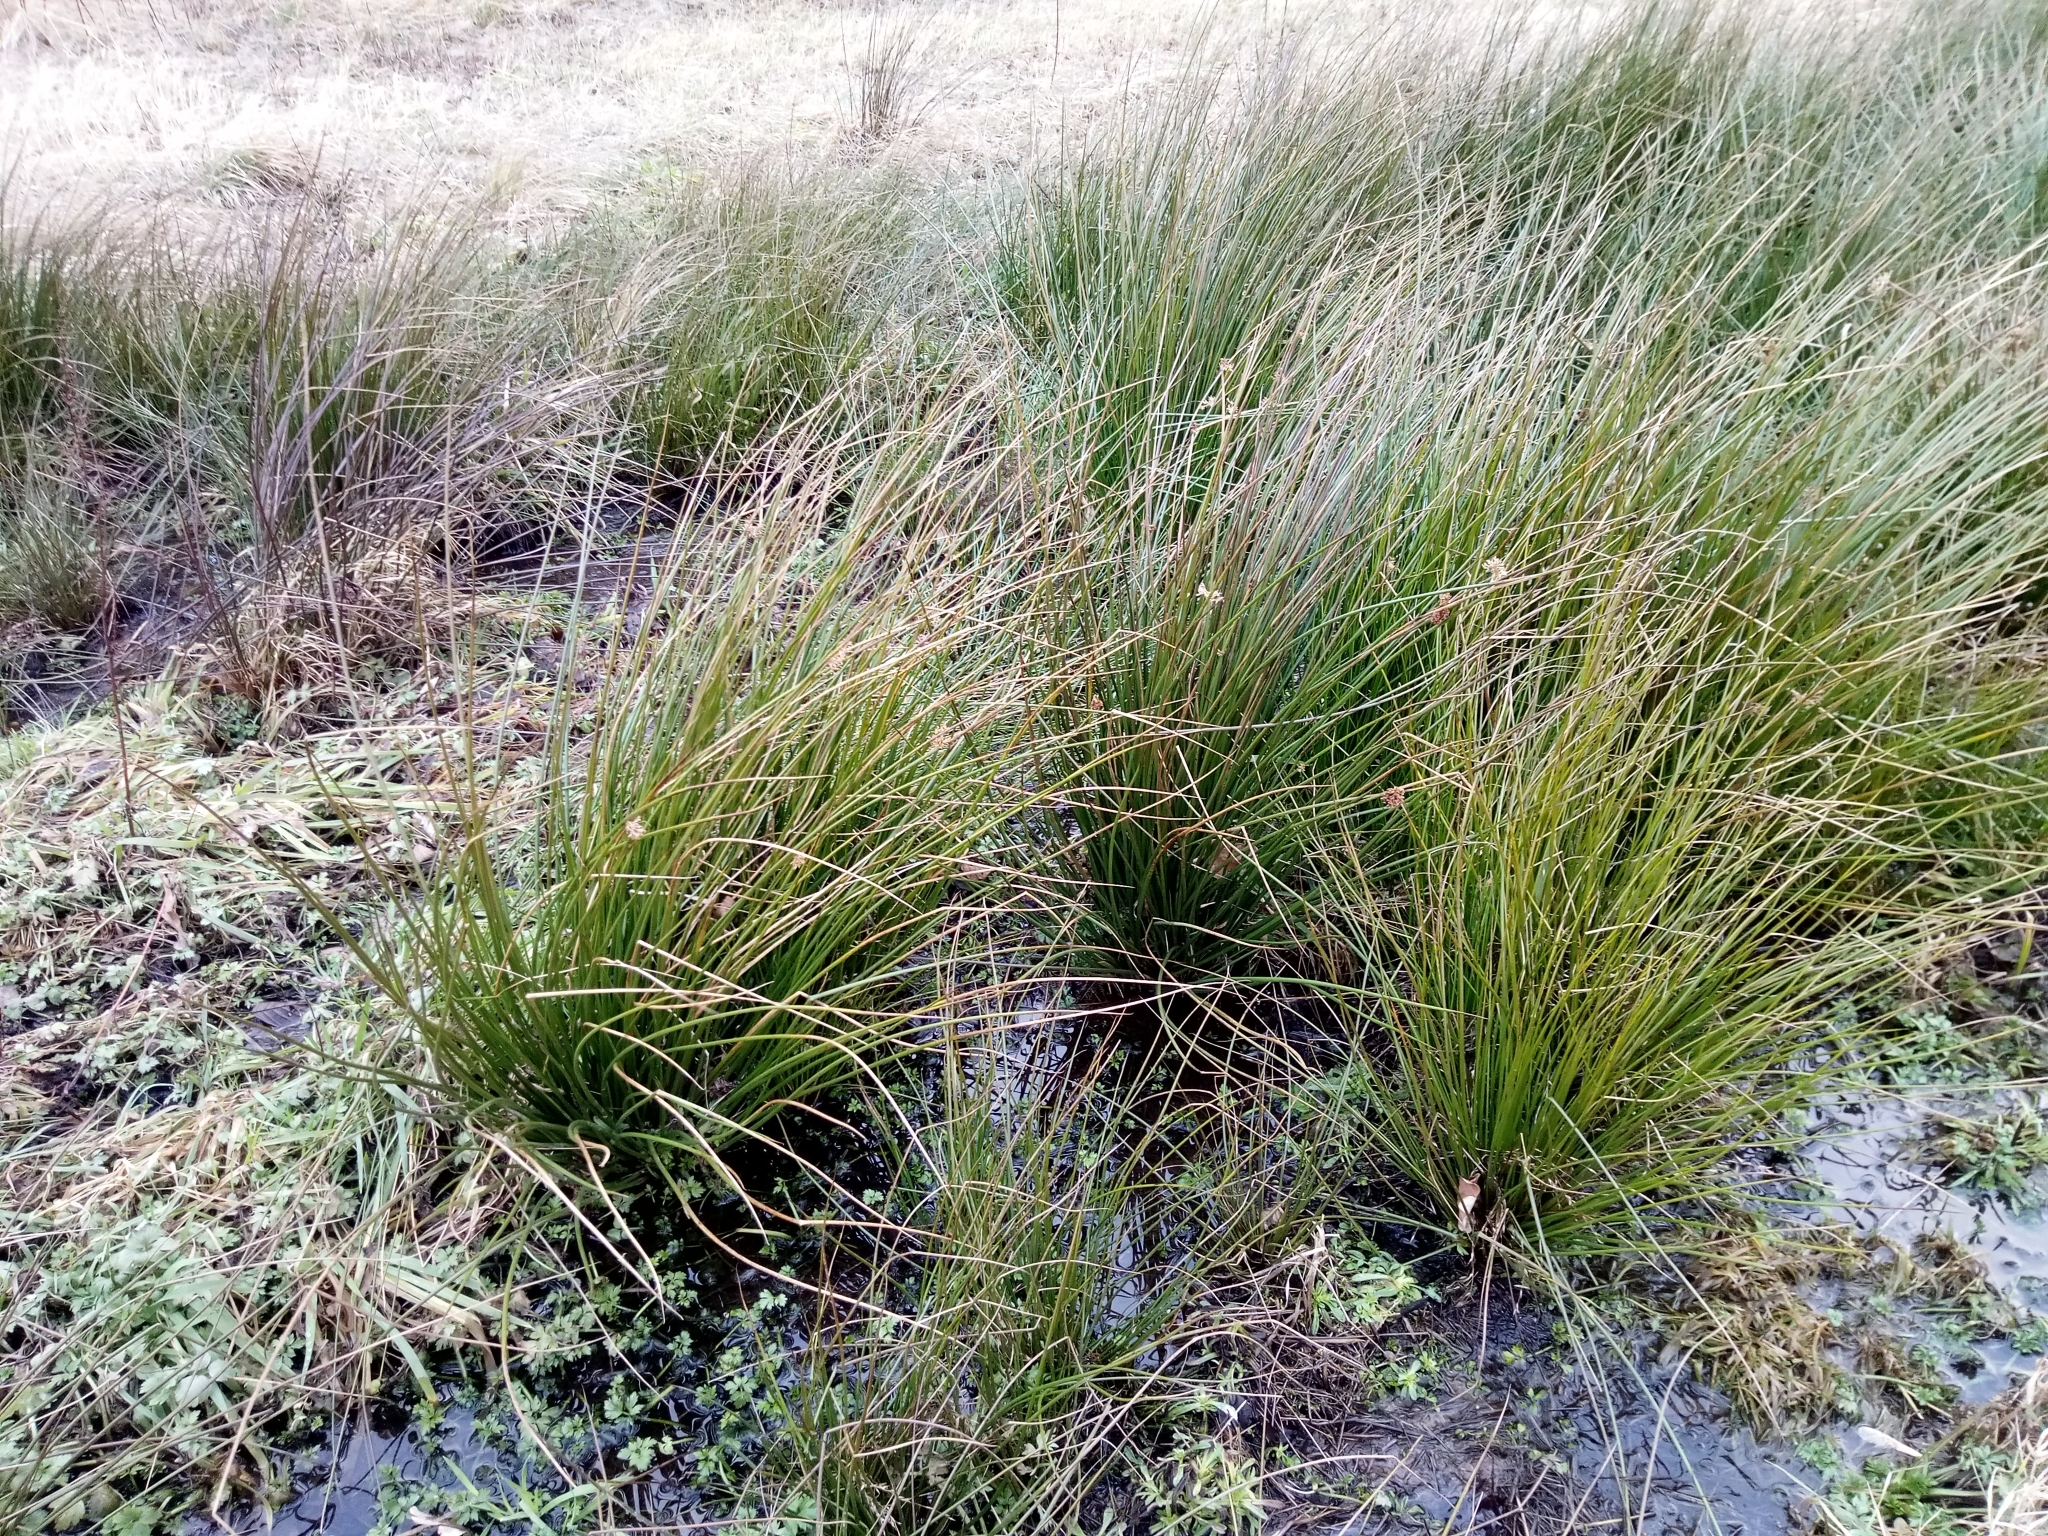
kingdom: Plantae
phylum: Tracheophyta
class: Liliopsida
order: Poales
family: Juncaceae
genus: Juncus
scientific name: Juncus effusus
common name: Soft rush
